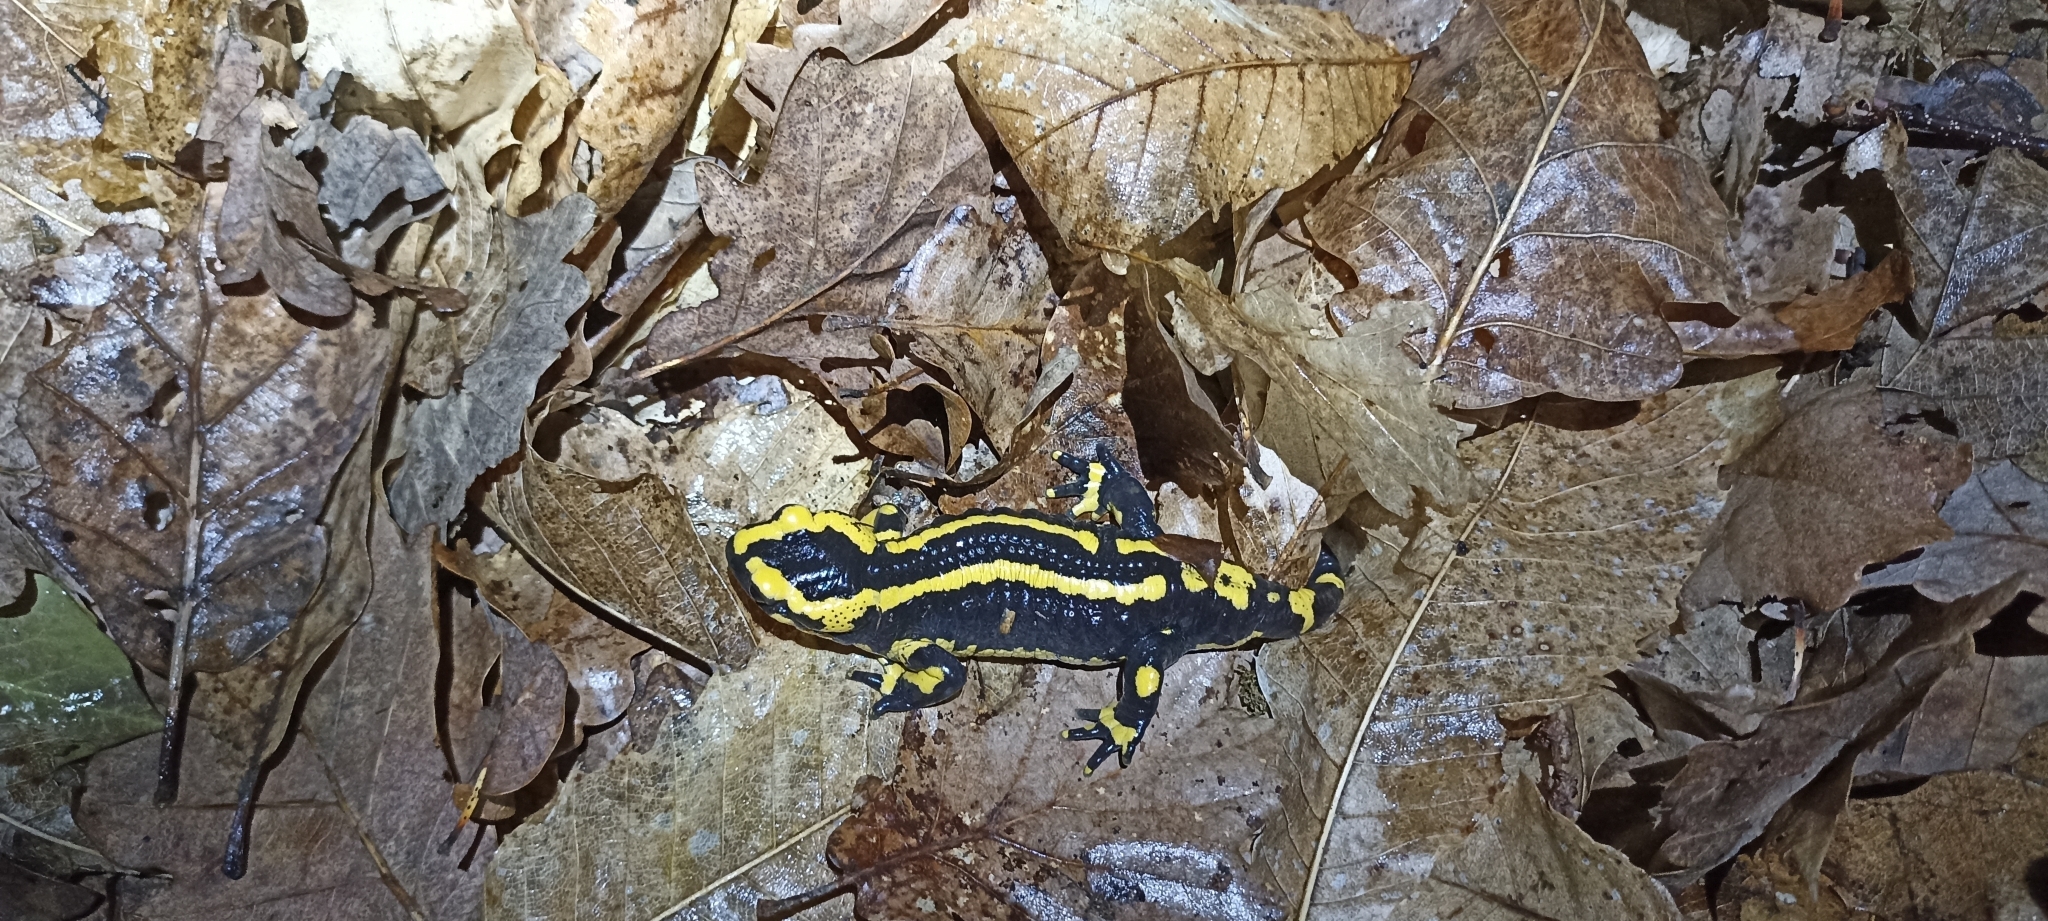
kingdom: Animalia
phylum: Chordata
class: Amphibia
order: Caudata
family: Salamandridae
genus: Salamandra
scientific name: Salamandra salamandra
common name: Fire salamander
